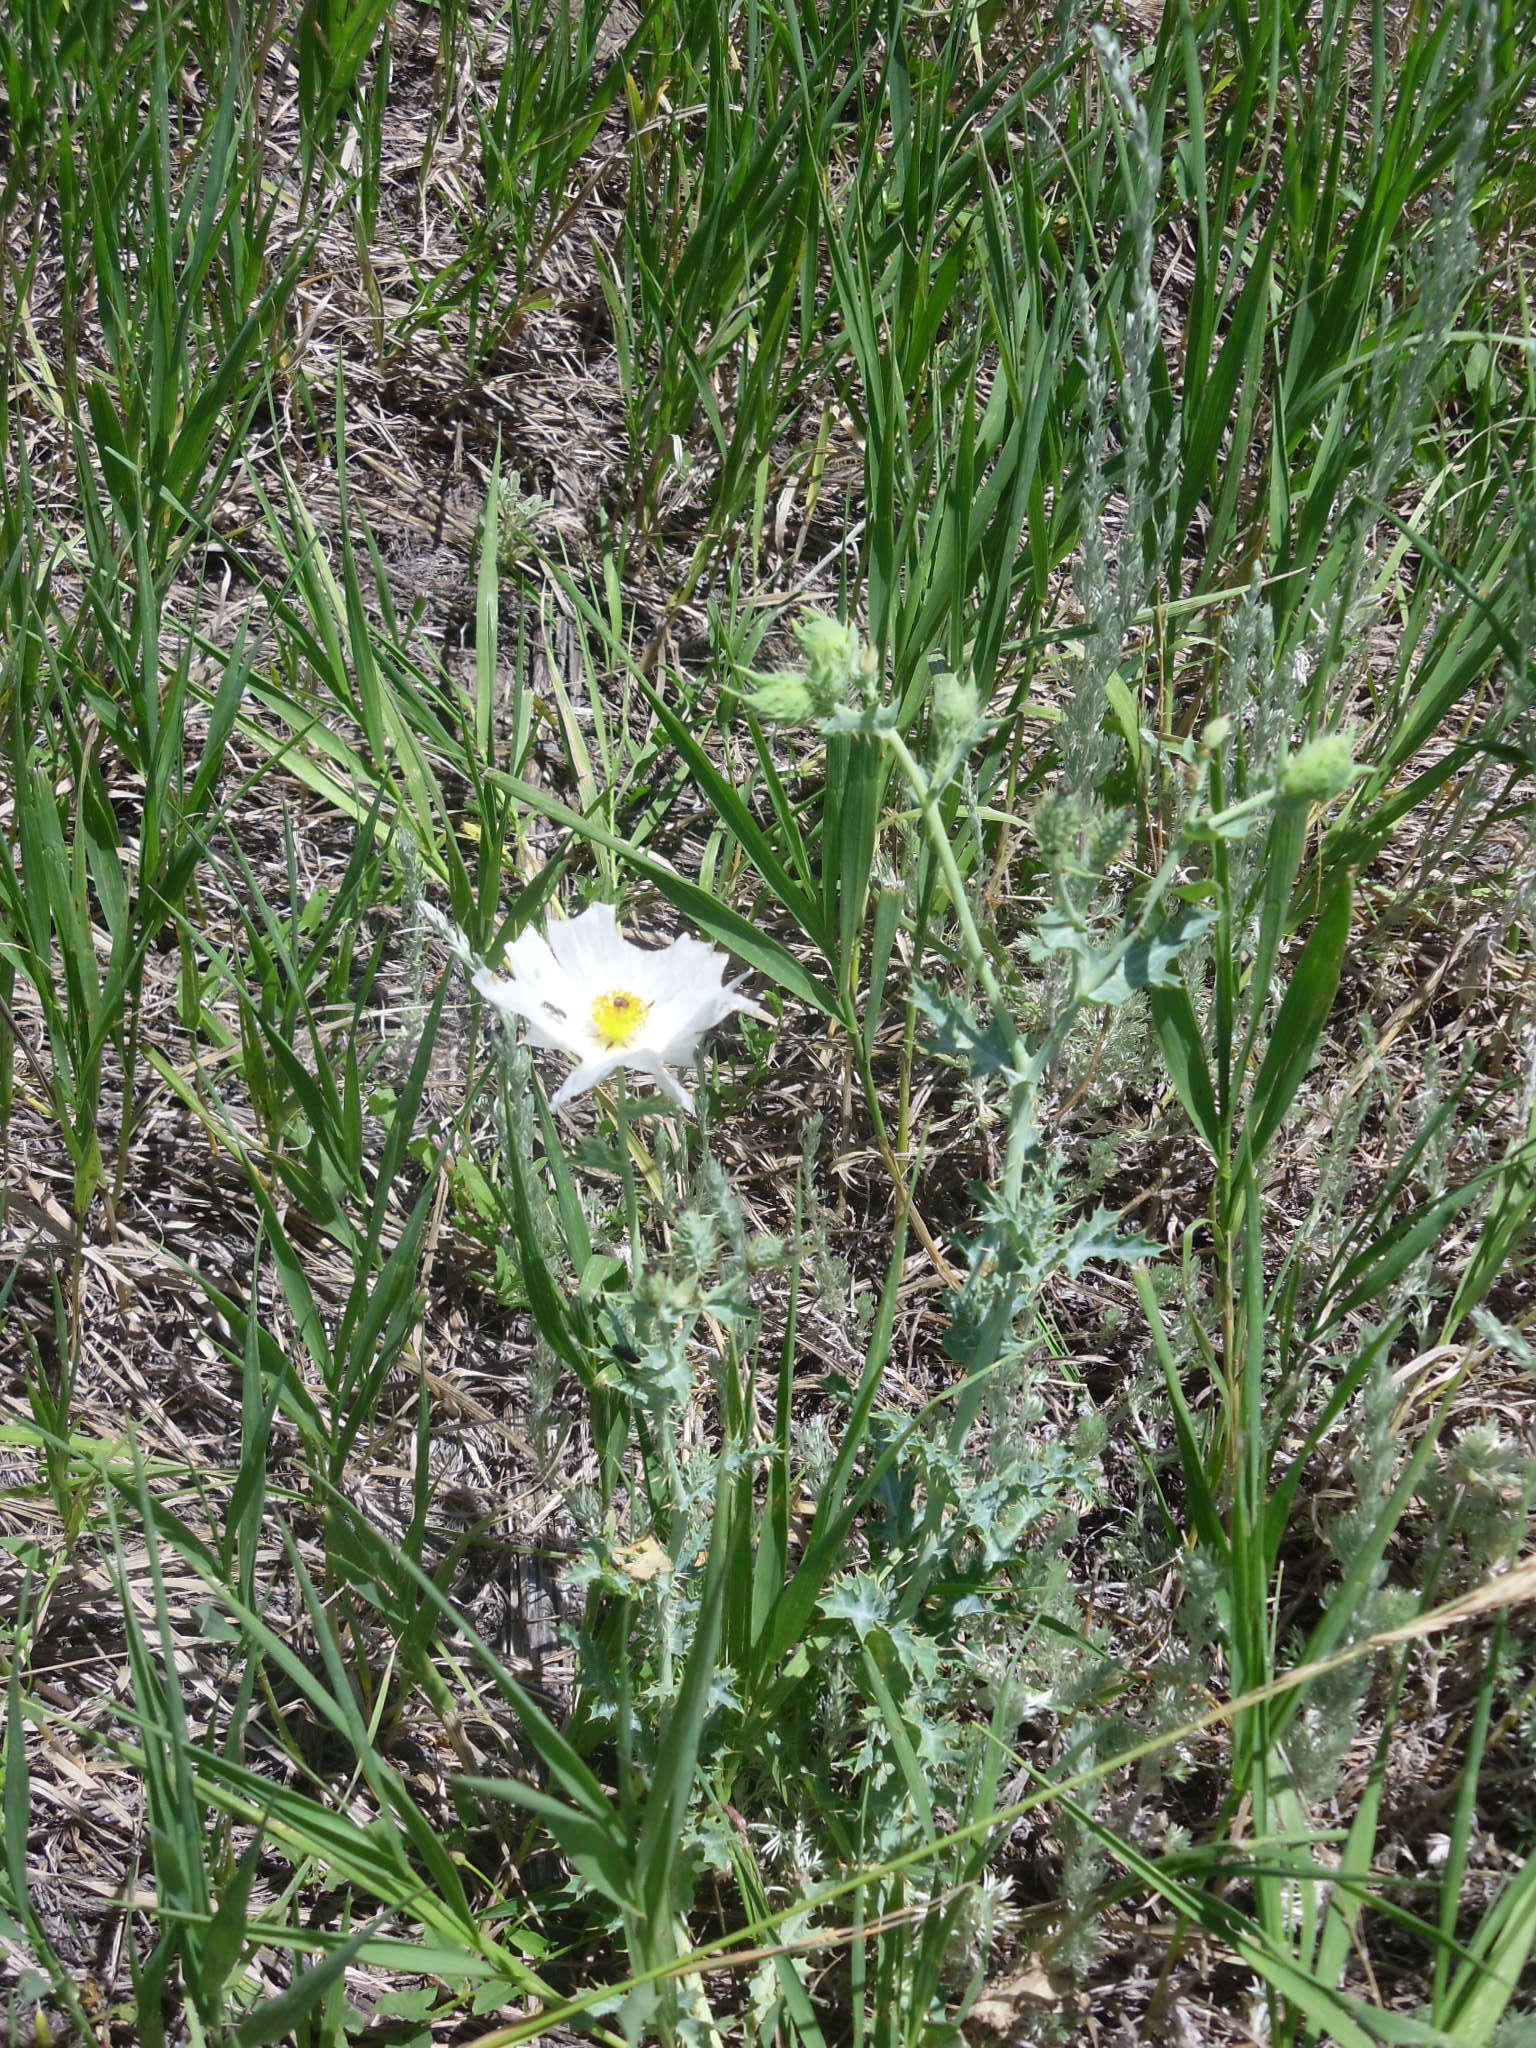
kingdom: Plantae
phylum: Tracheophyta
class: Magnoliopsida
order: Ranunculales
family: Papaveraceae
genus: Argemone
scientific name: Argemone polyanthemos
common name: Plains prickly-poppy
